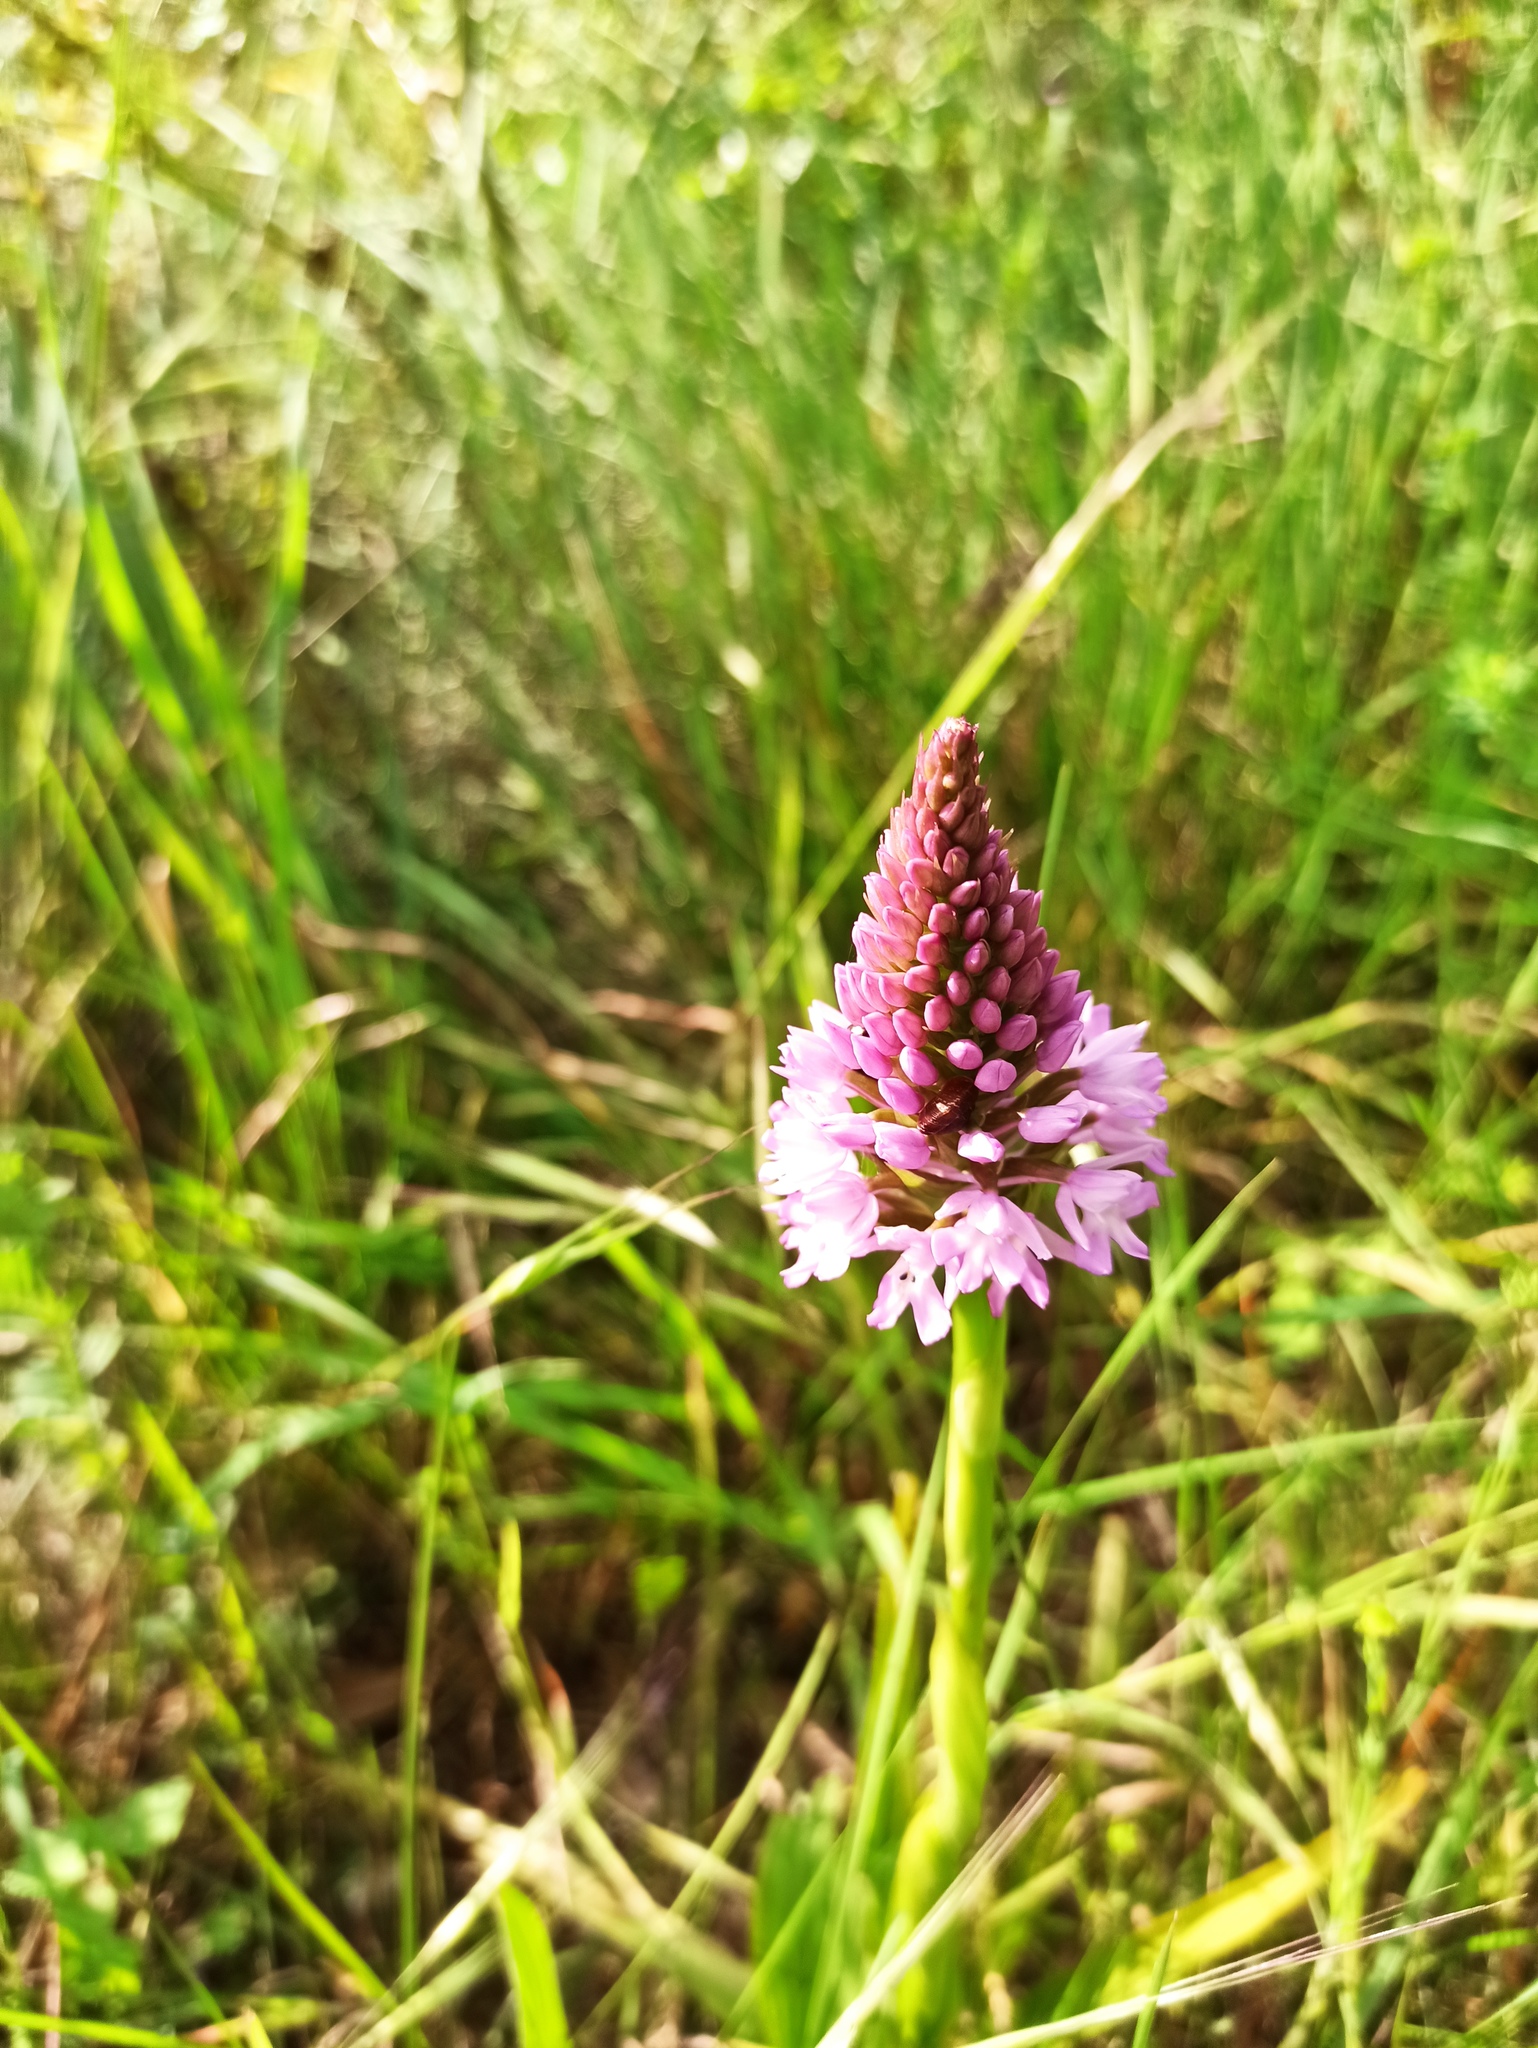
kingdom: Plantae
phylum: Tracheophyta
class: Liliopsida
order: Asparagales
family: Orchidaceae
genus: Anacamptis
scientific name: Anacamptis pyramidalis
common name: Pyramidal orchid
